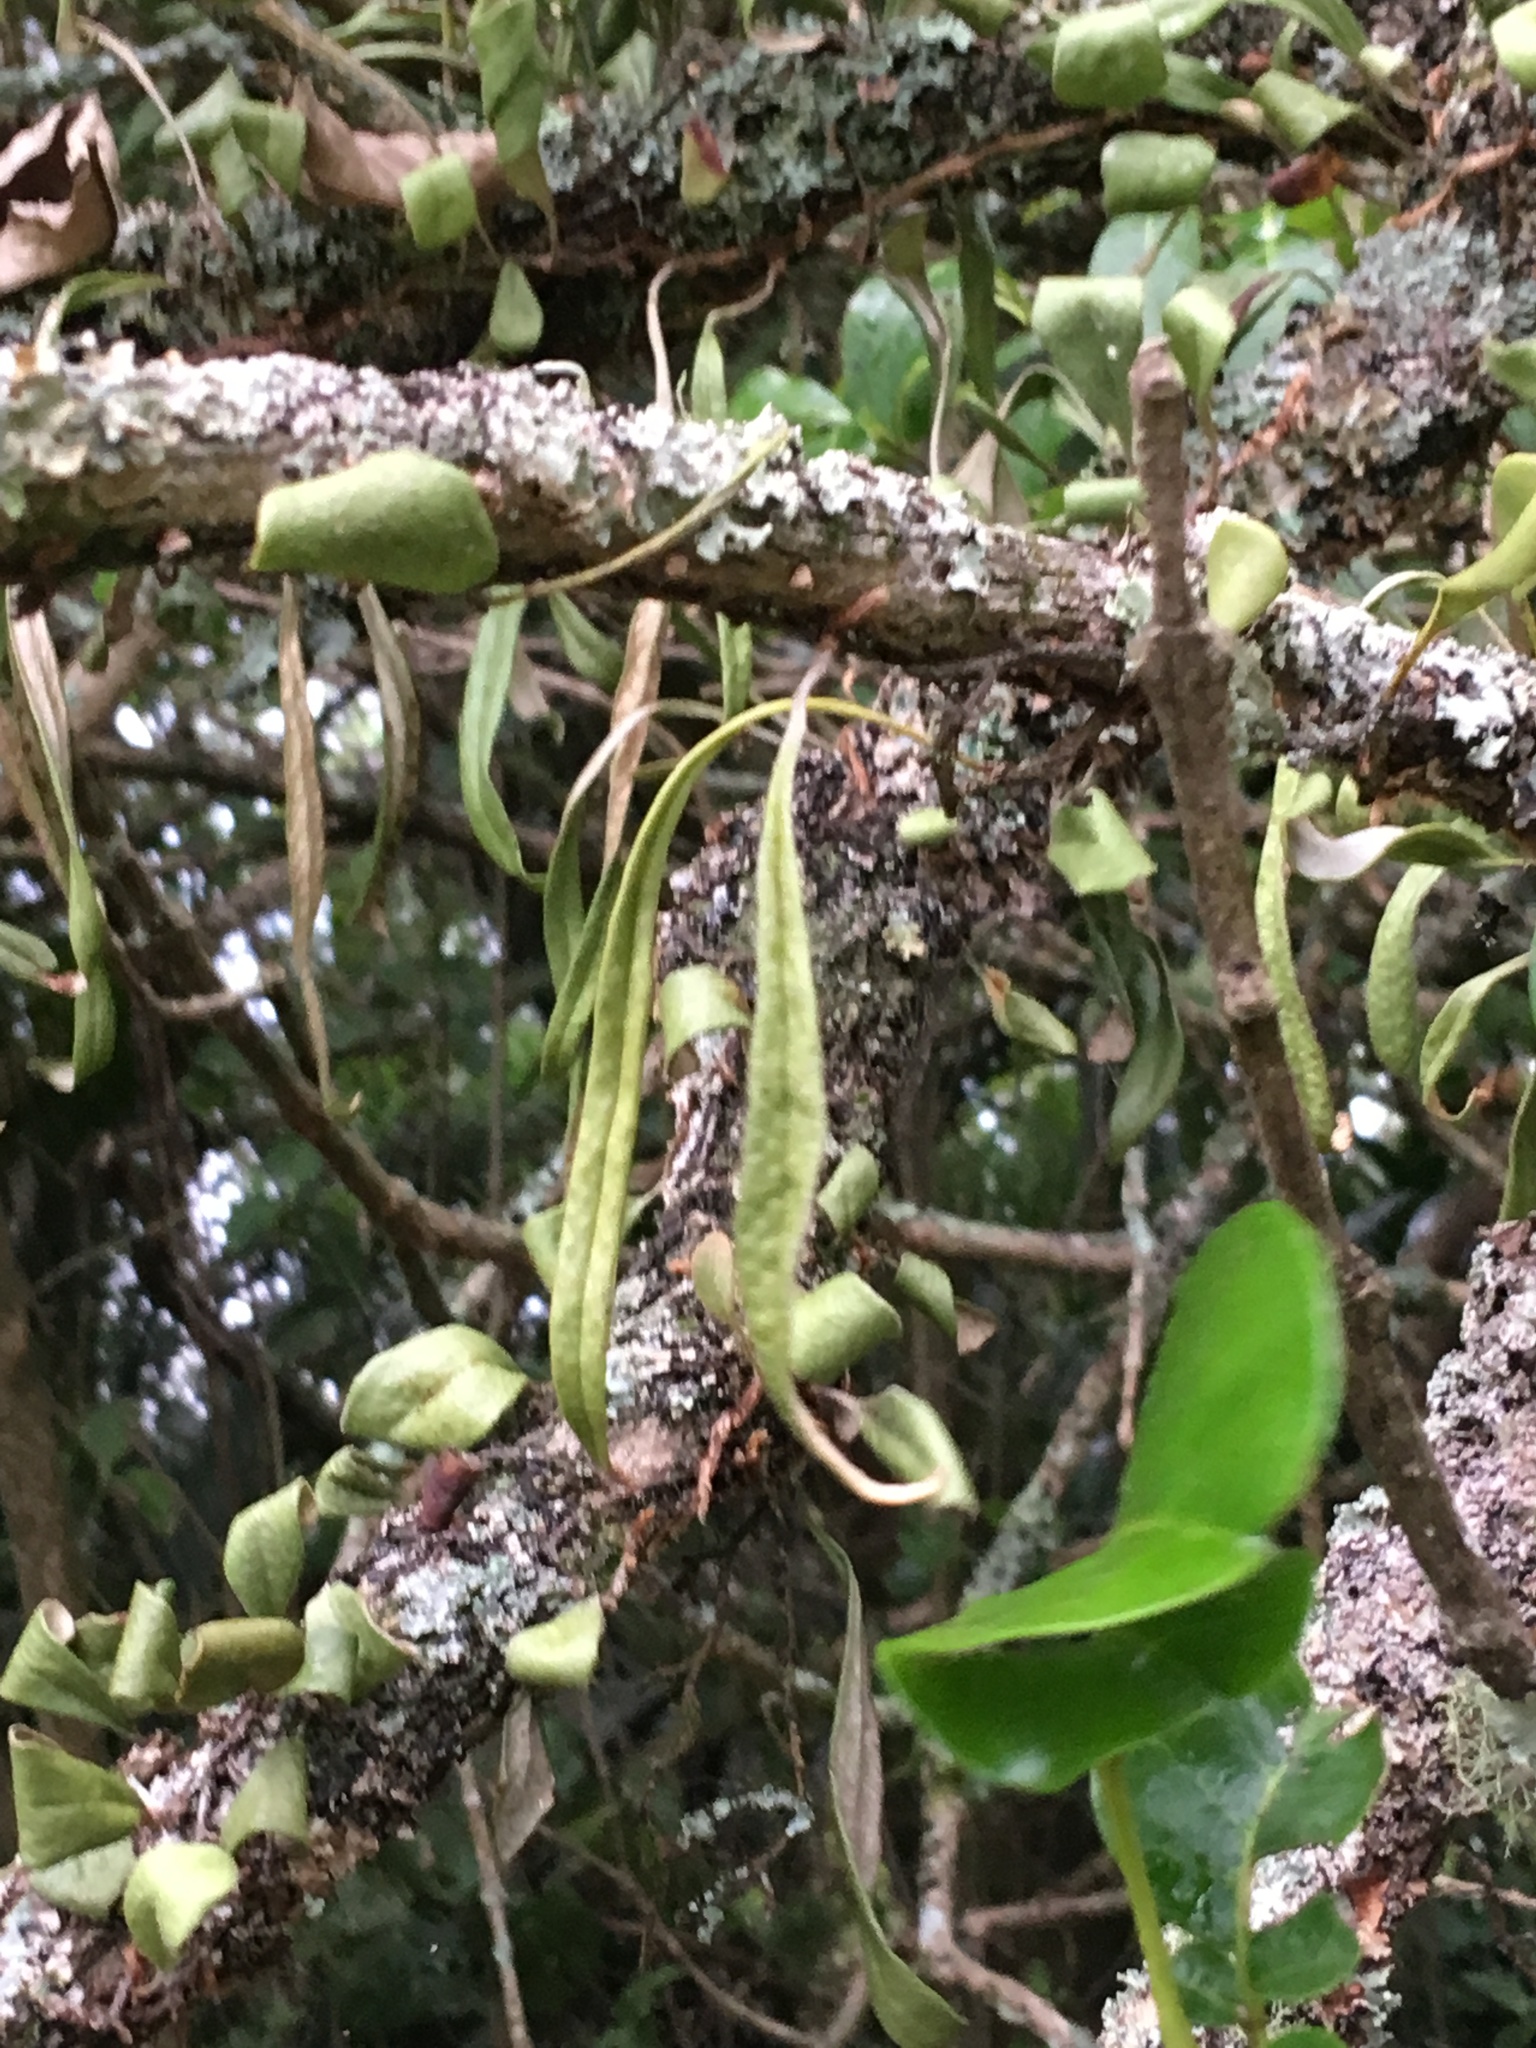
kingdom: Plantae
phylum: Tracheophyta
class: Polypodiopsida
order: Polypodiales
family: Polypodiaceae
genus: Pyrrosia
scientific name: Pyrrosia eleagnifolia
